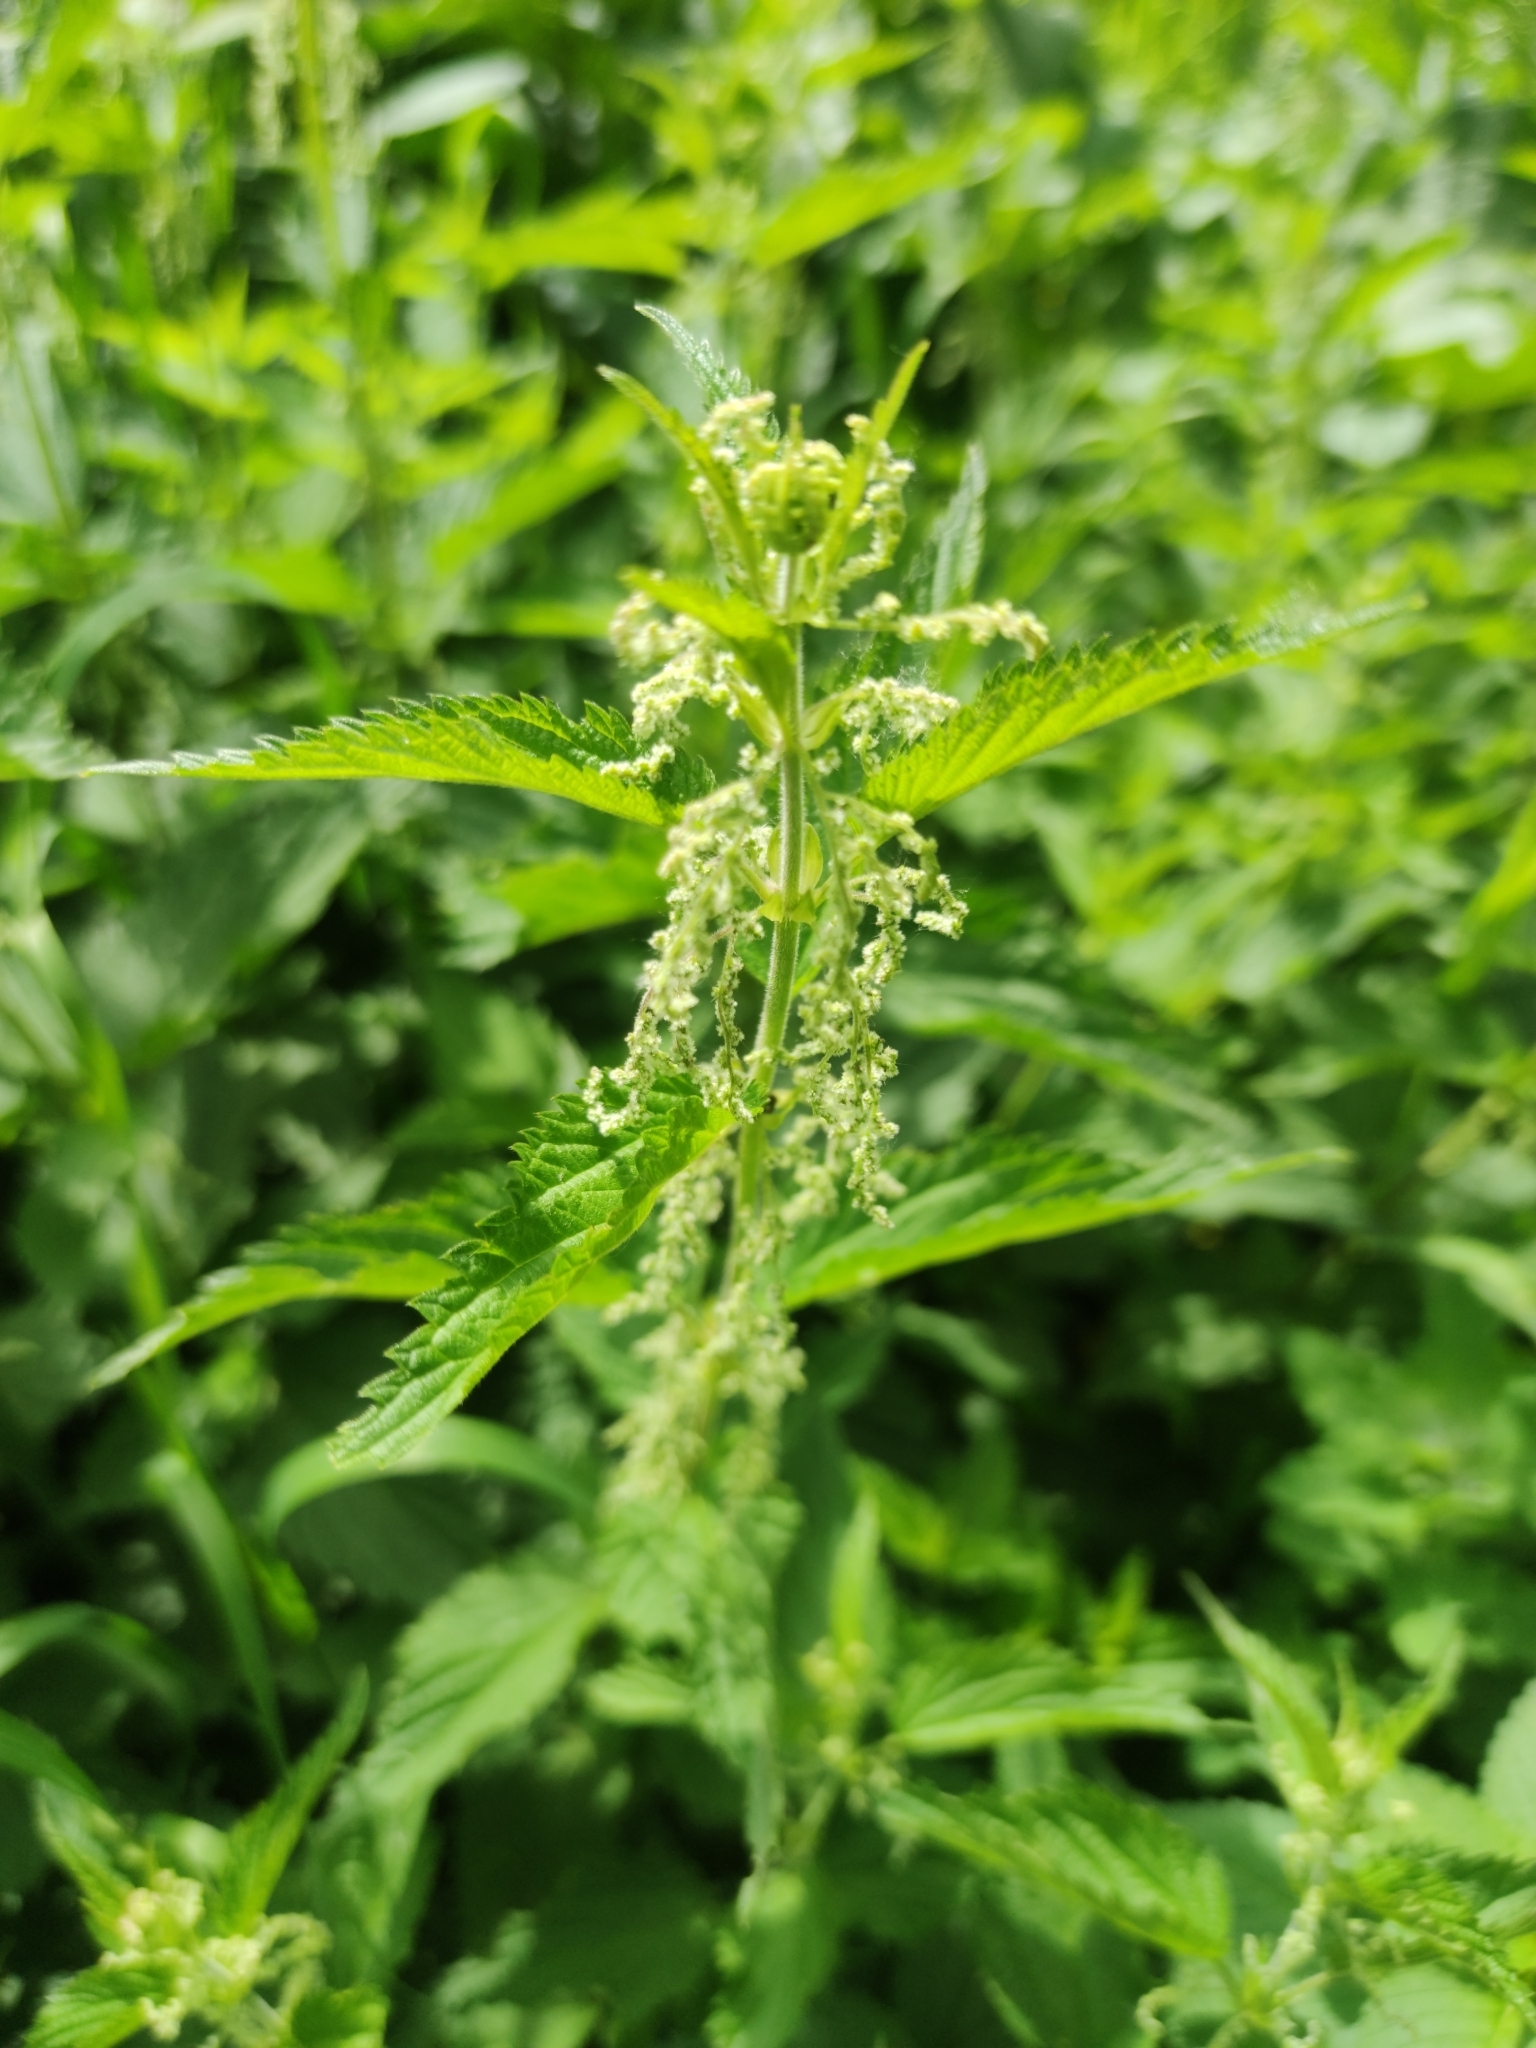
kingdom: Plantae
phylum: Tracheophyta
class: Magnoliopsida
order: Rosales
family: Urticaceae
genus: Urtica
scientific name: Urtica dioica
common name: Common nettle
